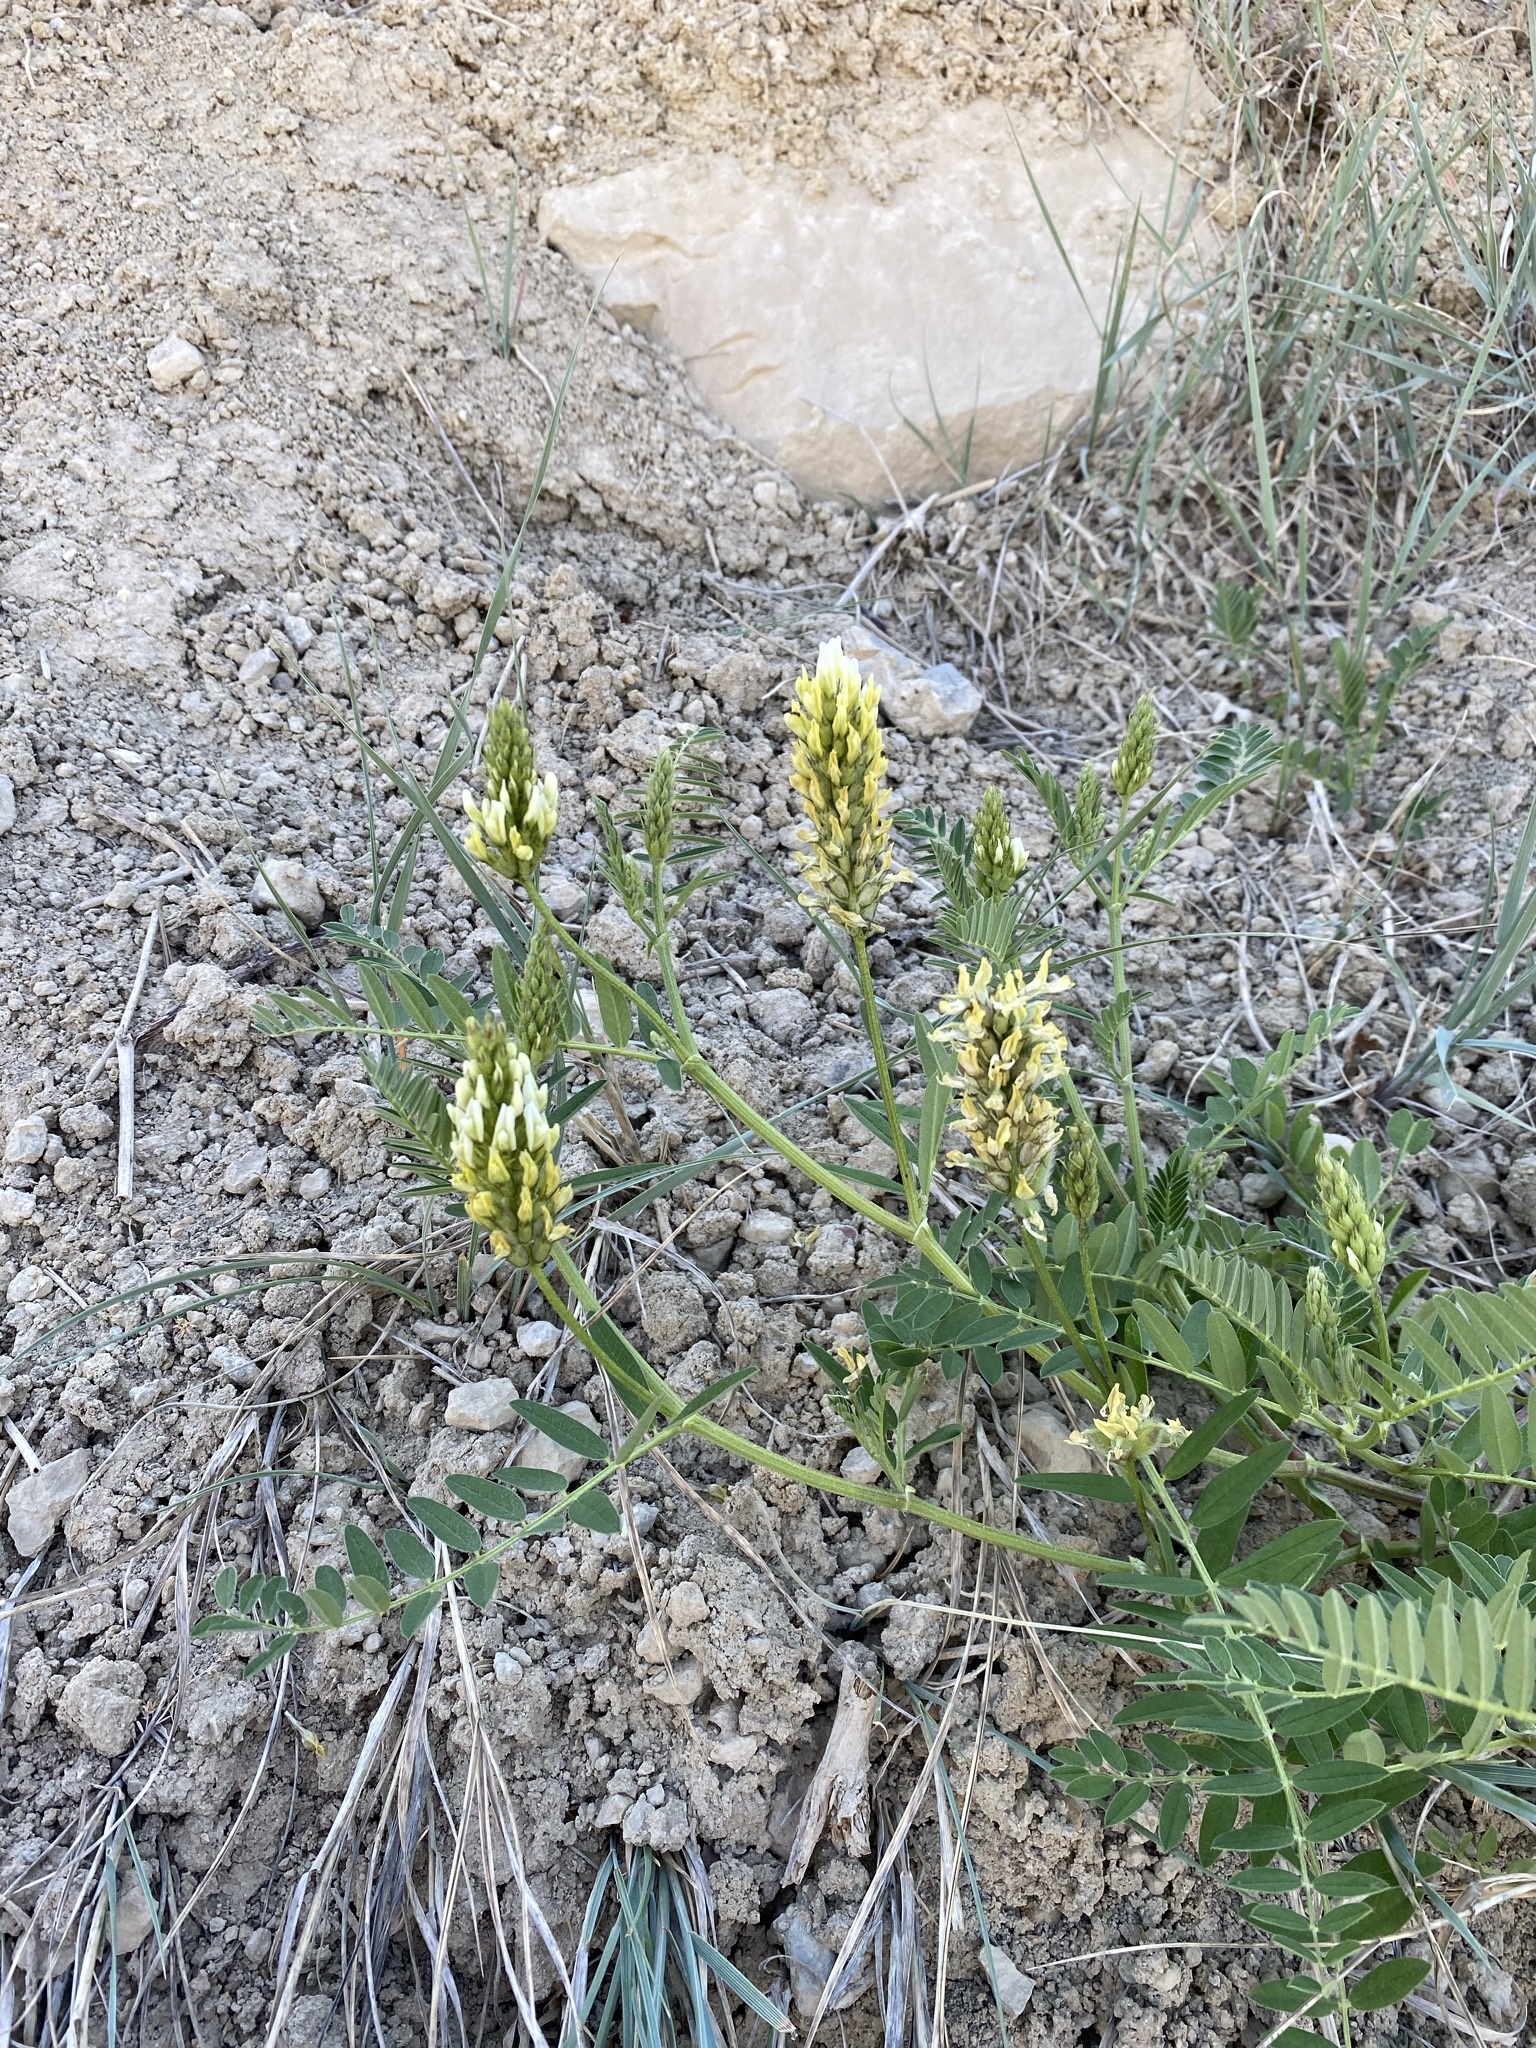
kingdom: Plantae
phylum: Tracheophyta
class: Magnoliopsida
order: Fabales
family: Fabaceae
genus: Astragalus
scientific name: Astragalus cicer
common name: Chick-pea milk-vetch
